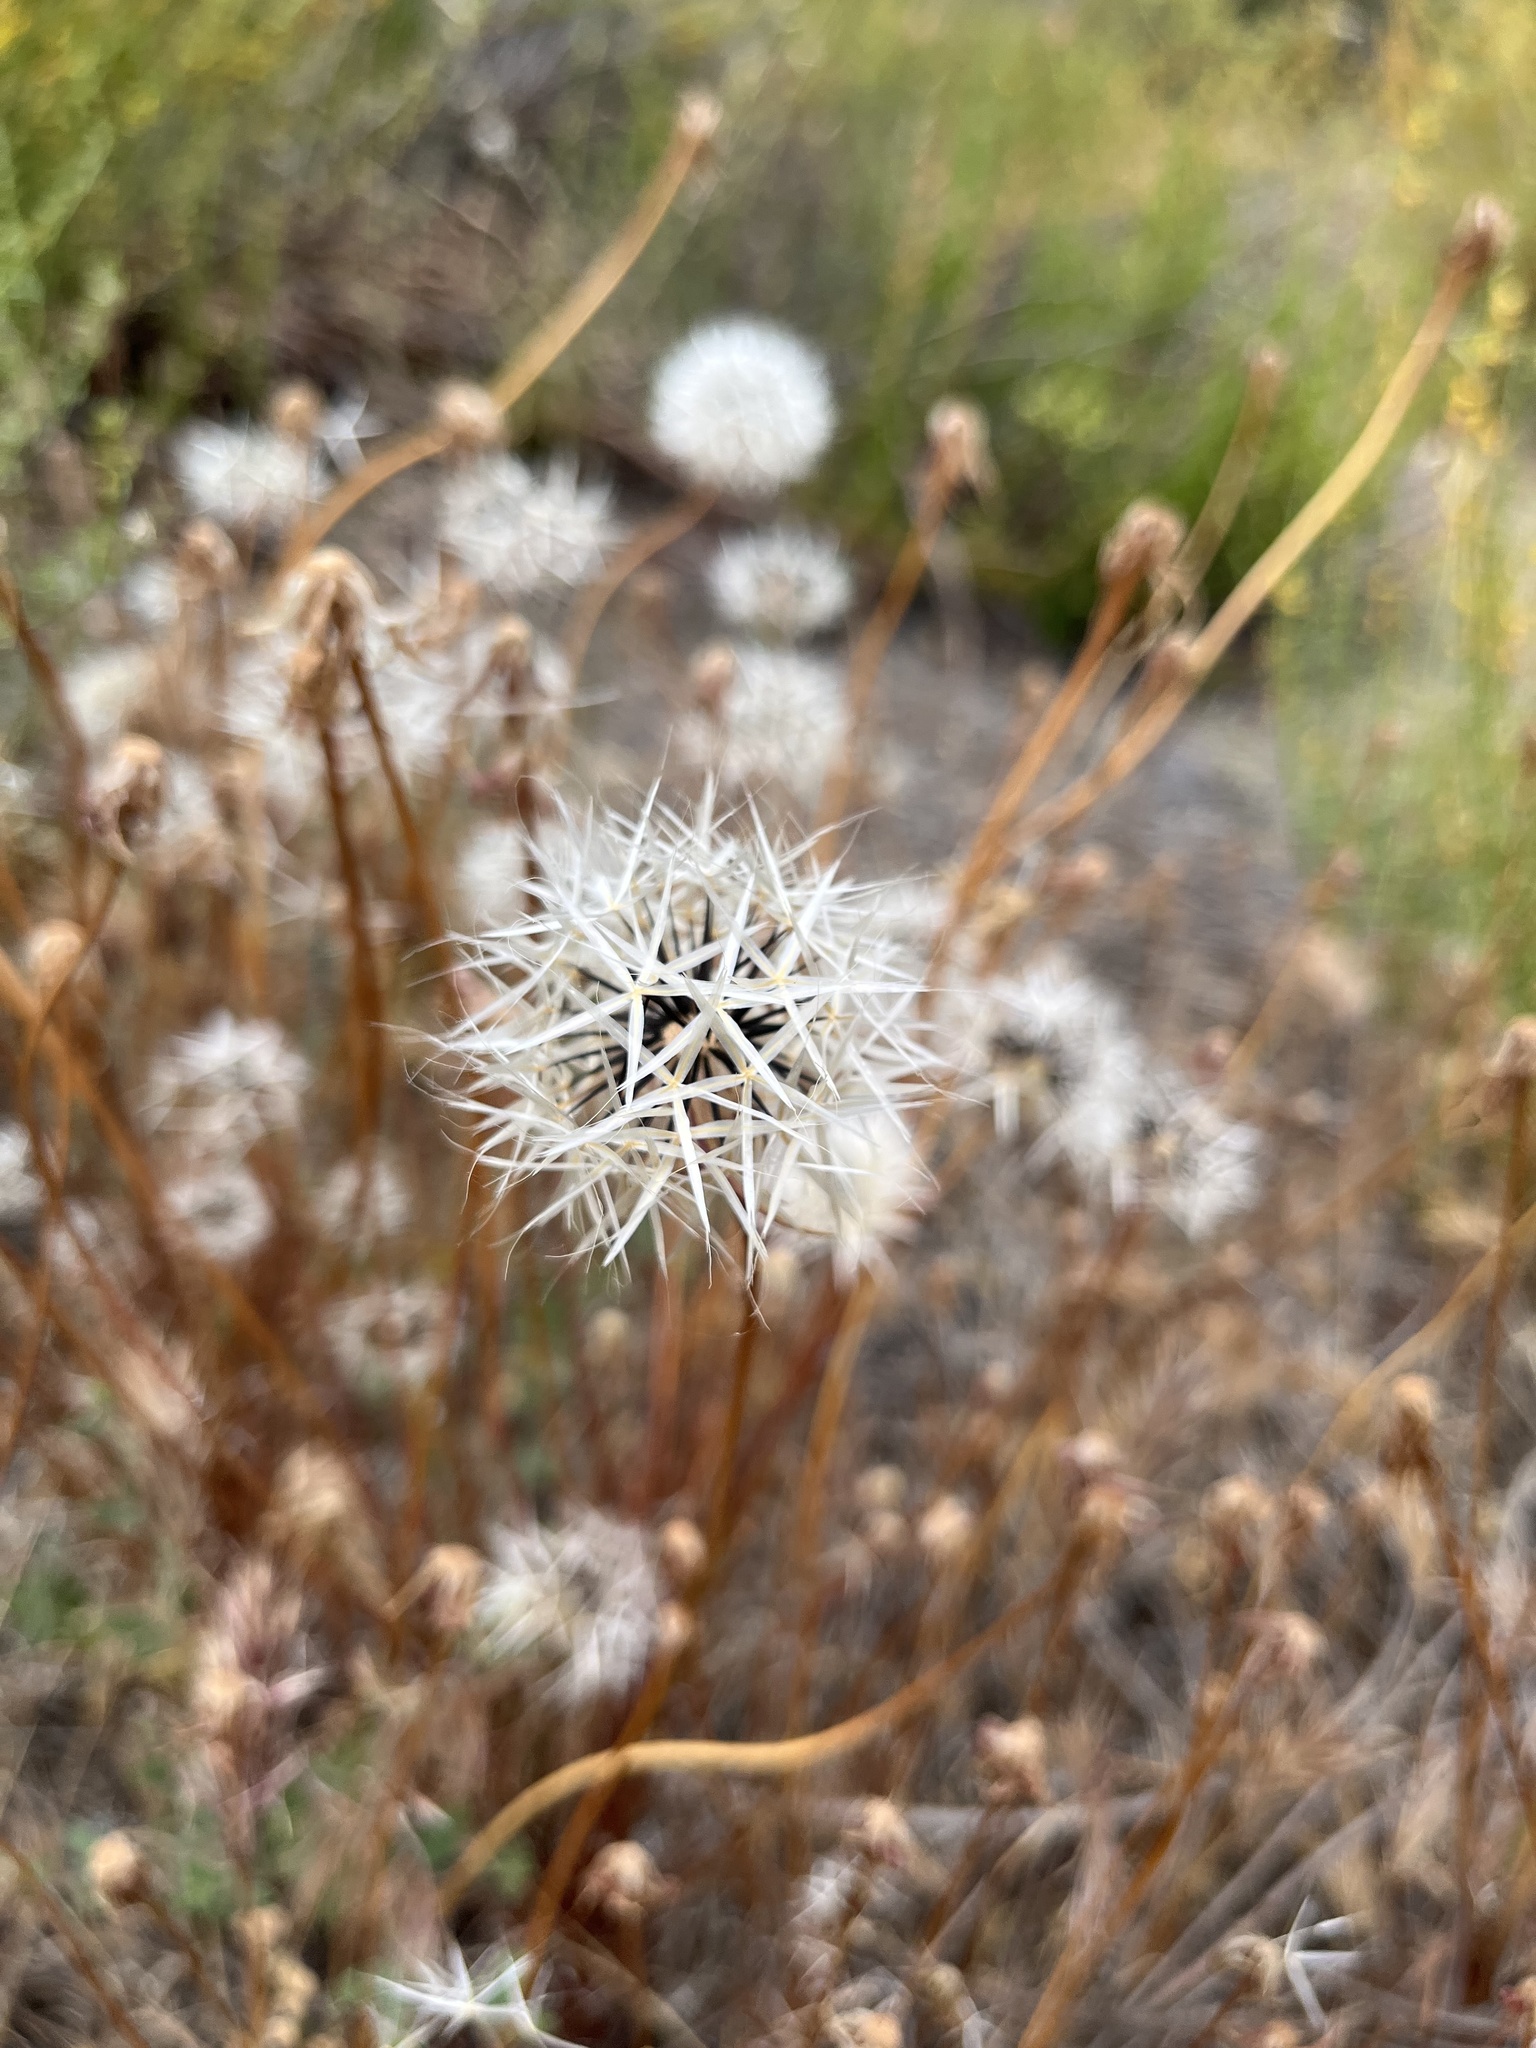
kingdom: Plantae
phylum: Tracheophyta
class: Magnoliopsida
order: Asterales
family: Asteraceae
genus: Microseris
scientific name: Microseris lindleyi
